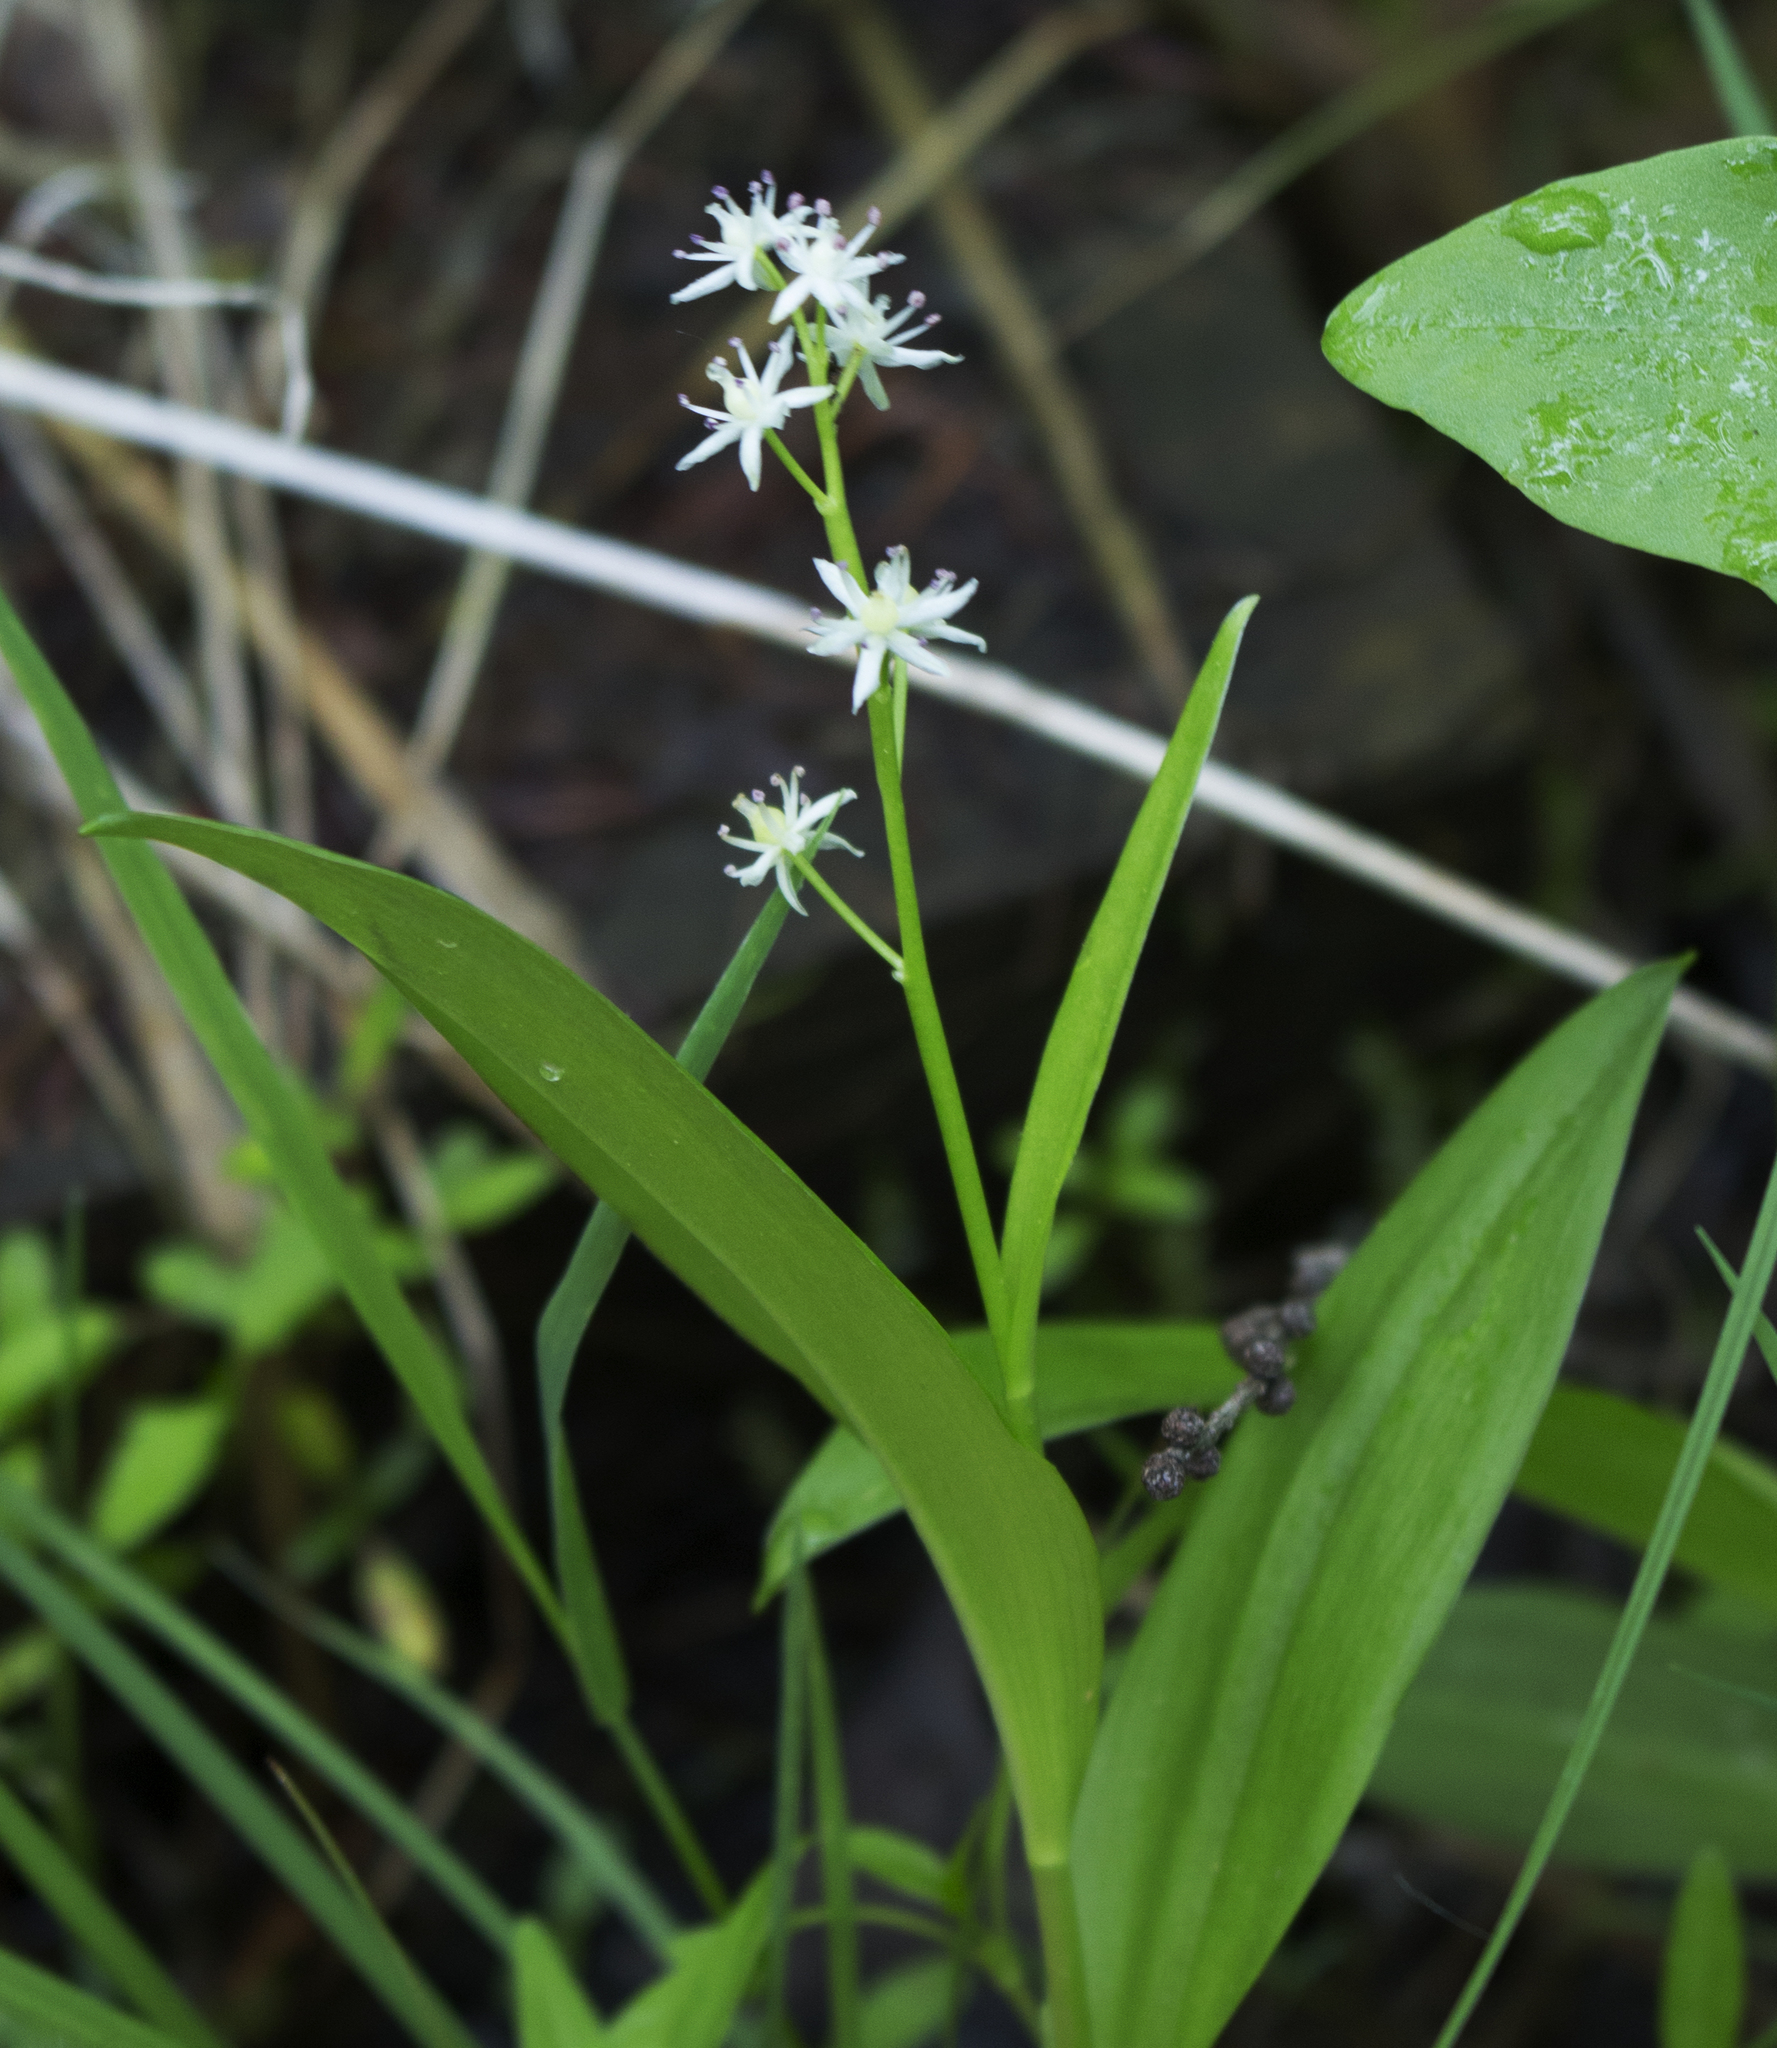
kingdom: Plantae
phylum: Tracheophyta
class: Liliopsida
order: Asparagales
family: Asparagaceae
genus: Maianthemum
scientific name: Maianthemum trifolium
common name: Swamp false solomon's seal
